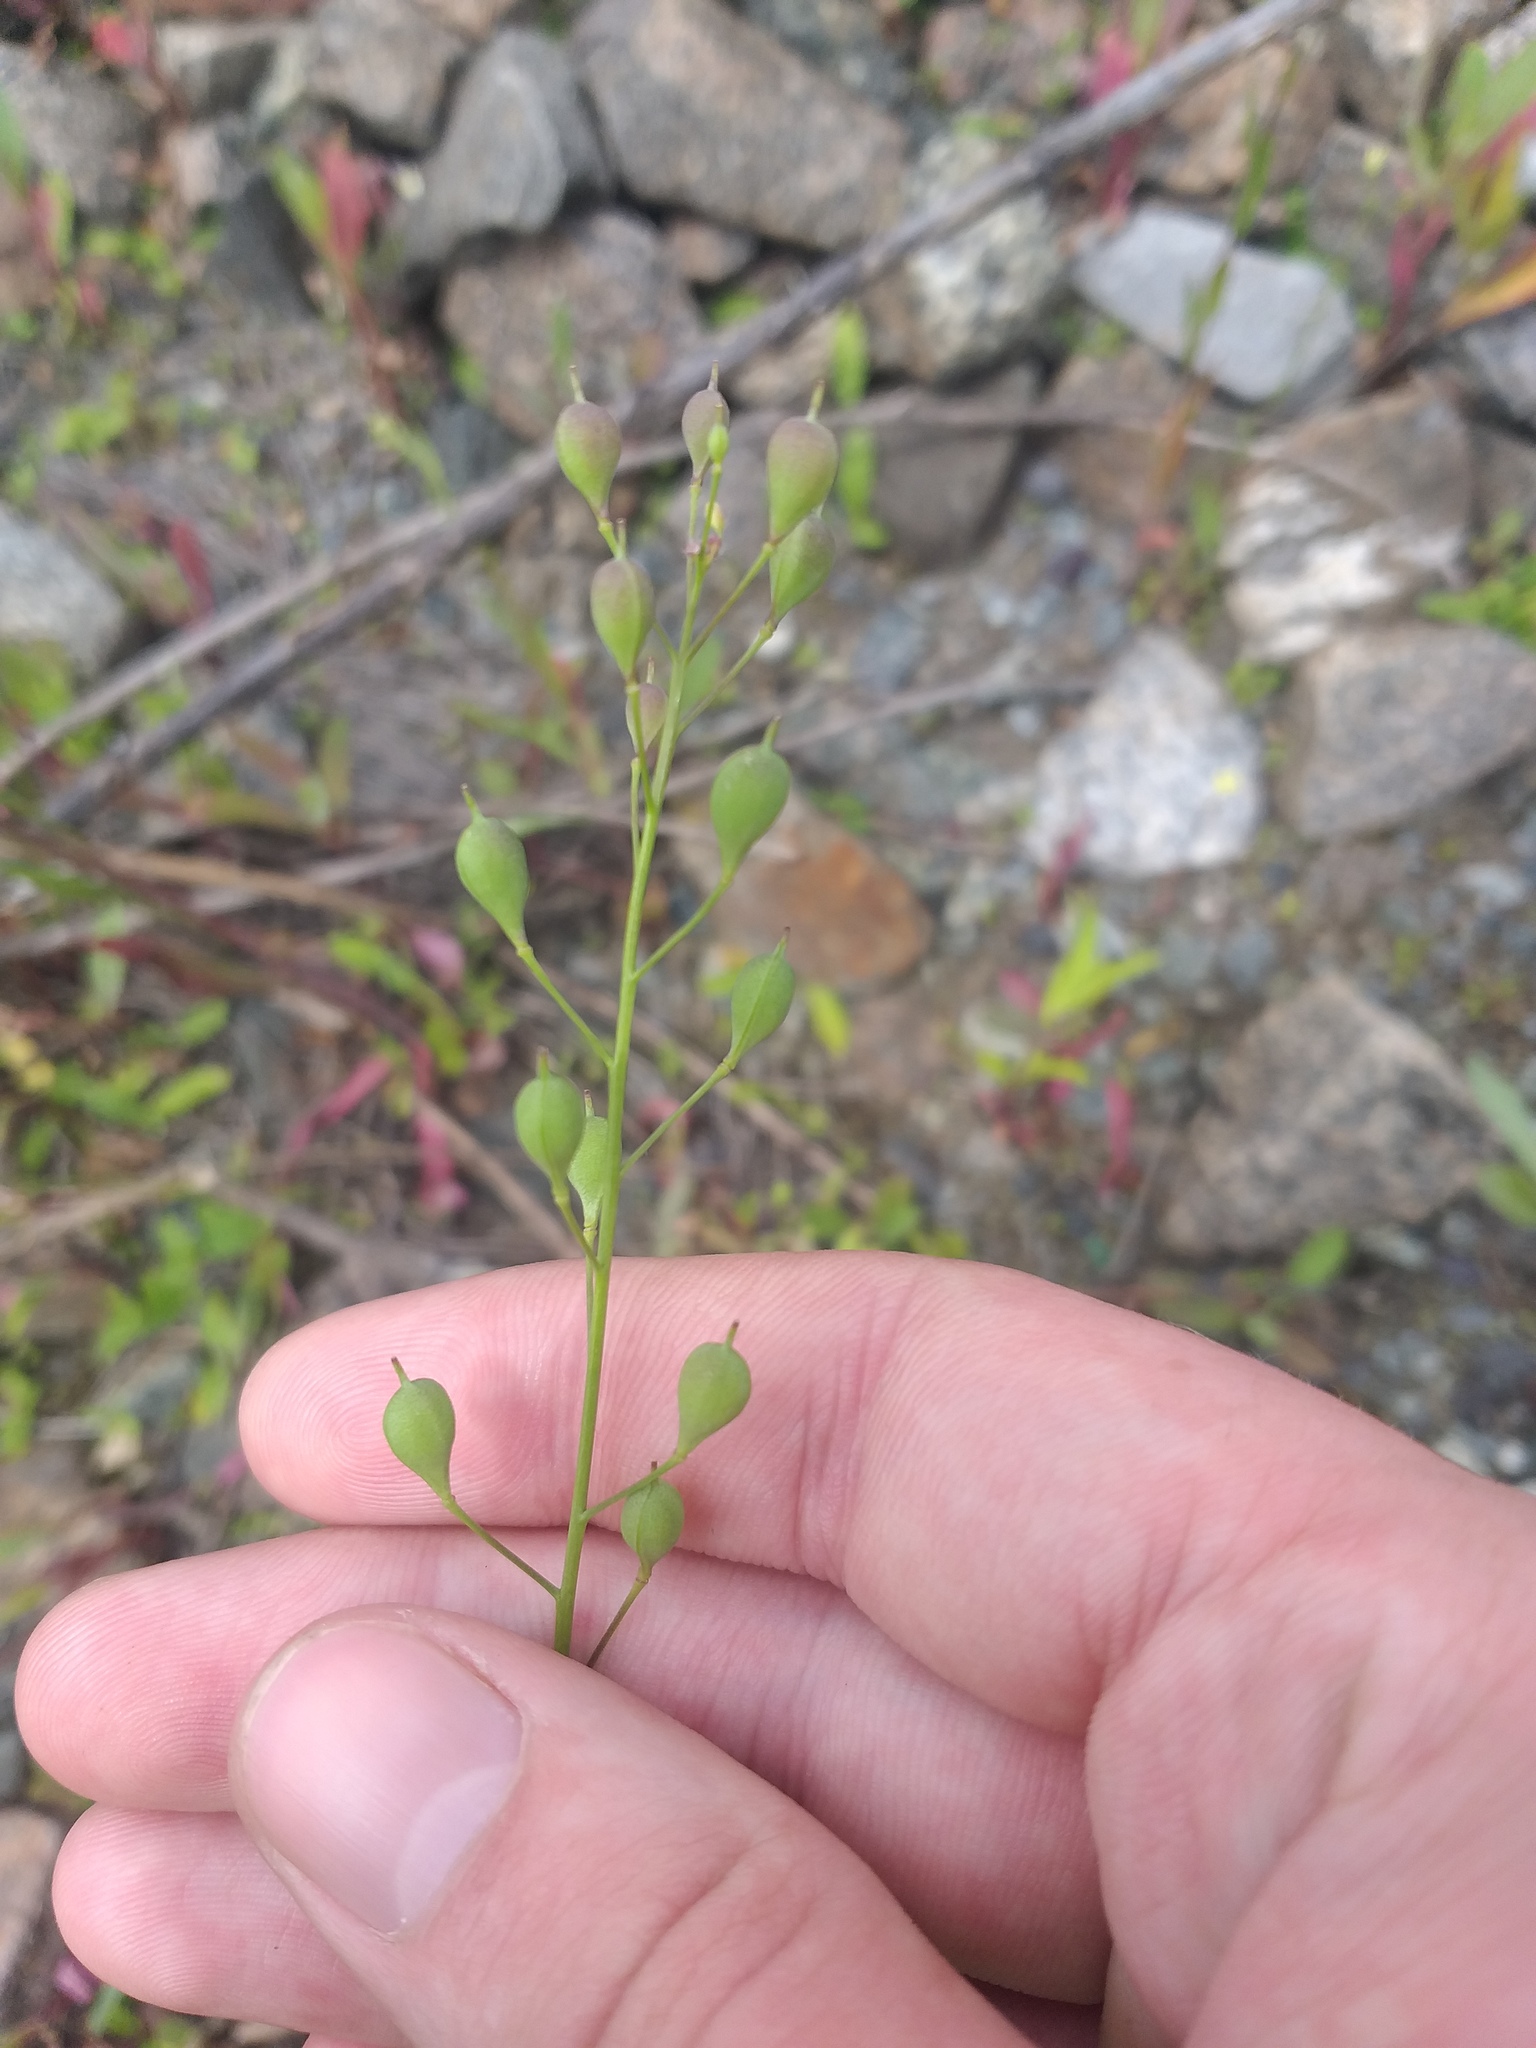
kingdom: Plantae
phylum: Tracheophyta
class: Magnoliopsida
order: Brassicales
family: Brassicaceae
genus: Camelina
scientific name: Camelina sativa
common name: Gold-of-pleasure
